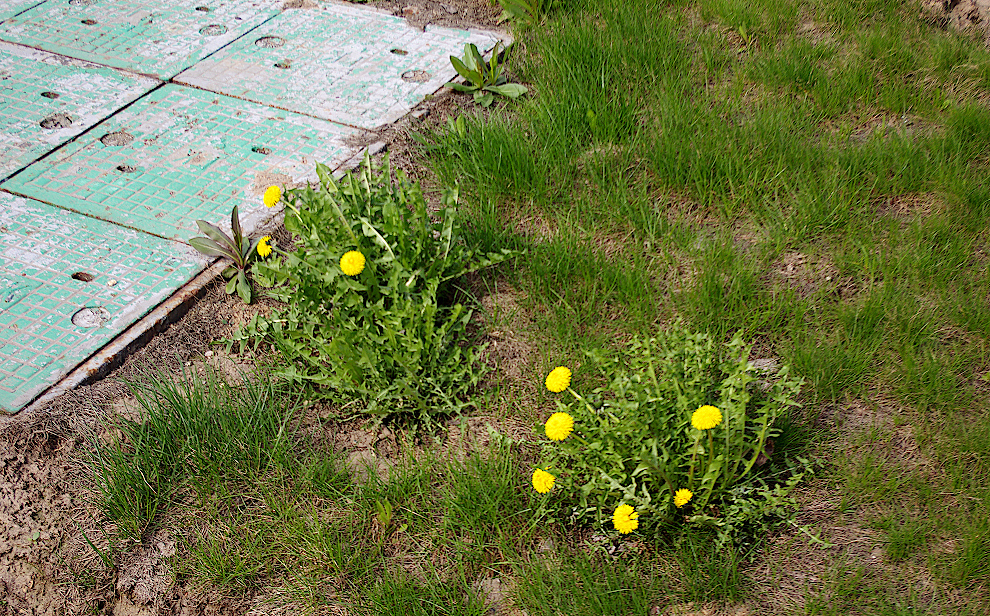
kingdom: Plantae
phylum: Tracheophyta
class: Magnoliopsida
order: Asterales
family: Asteraceae
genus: Taraxacum
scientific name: Taraxacum officinale
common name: Common dandelion
